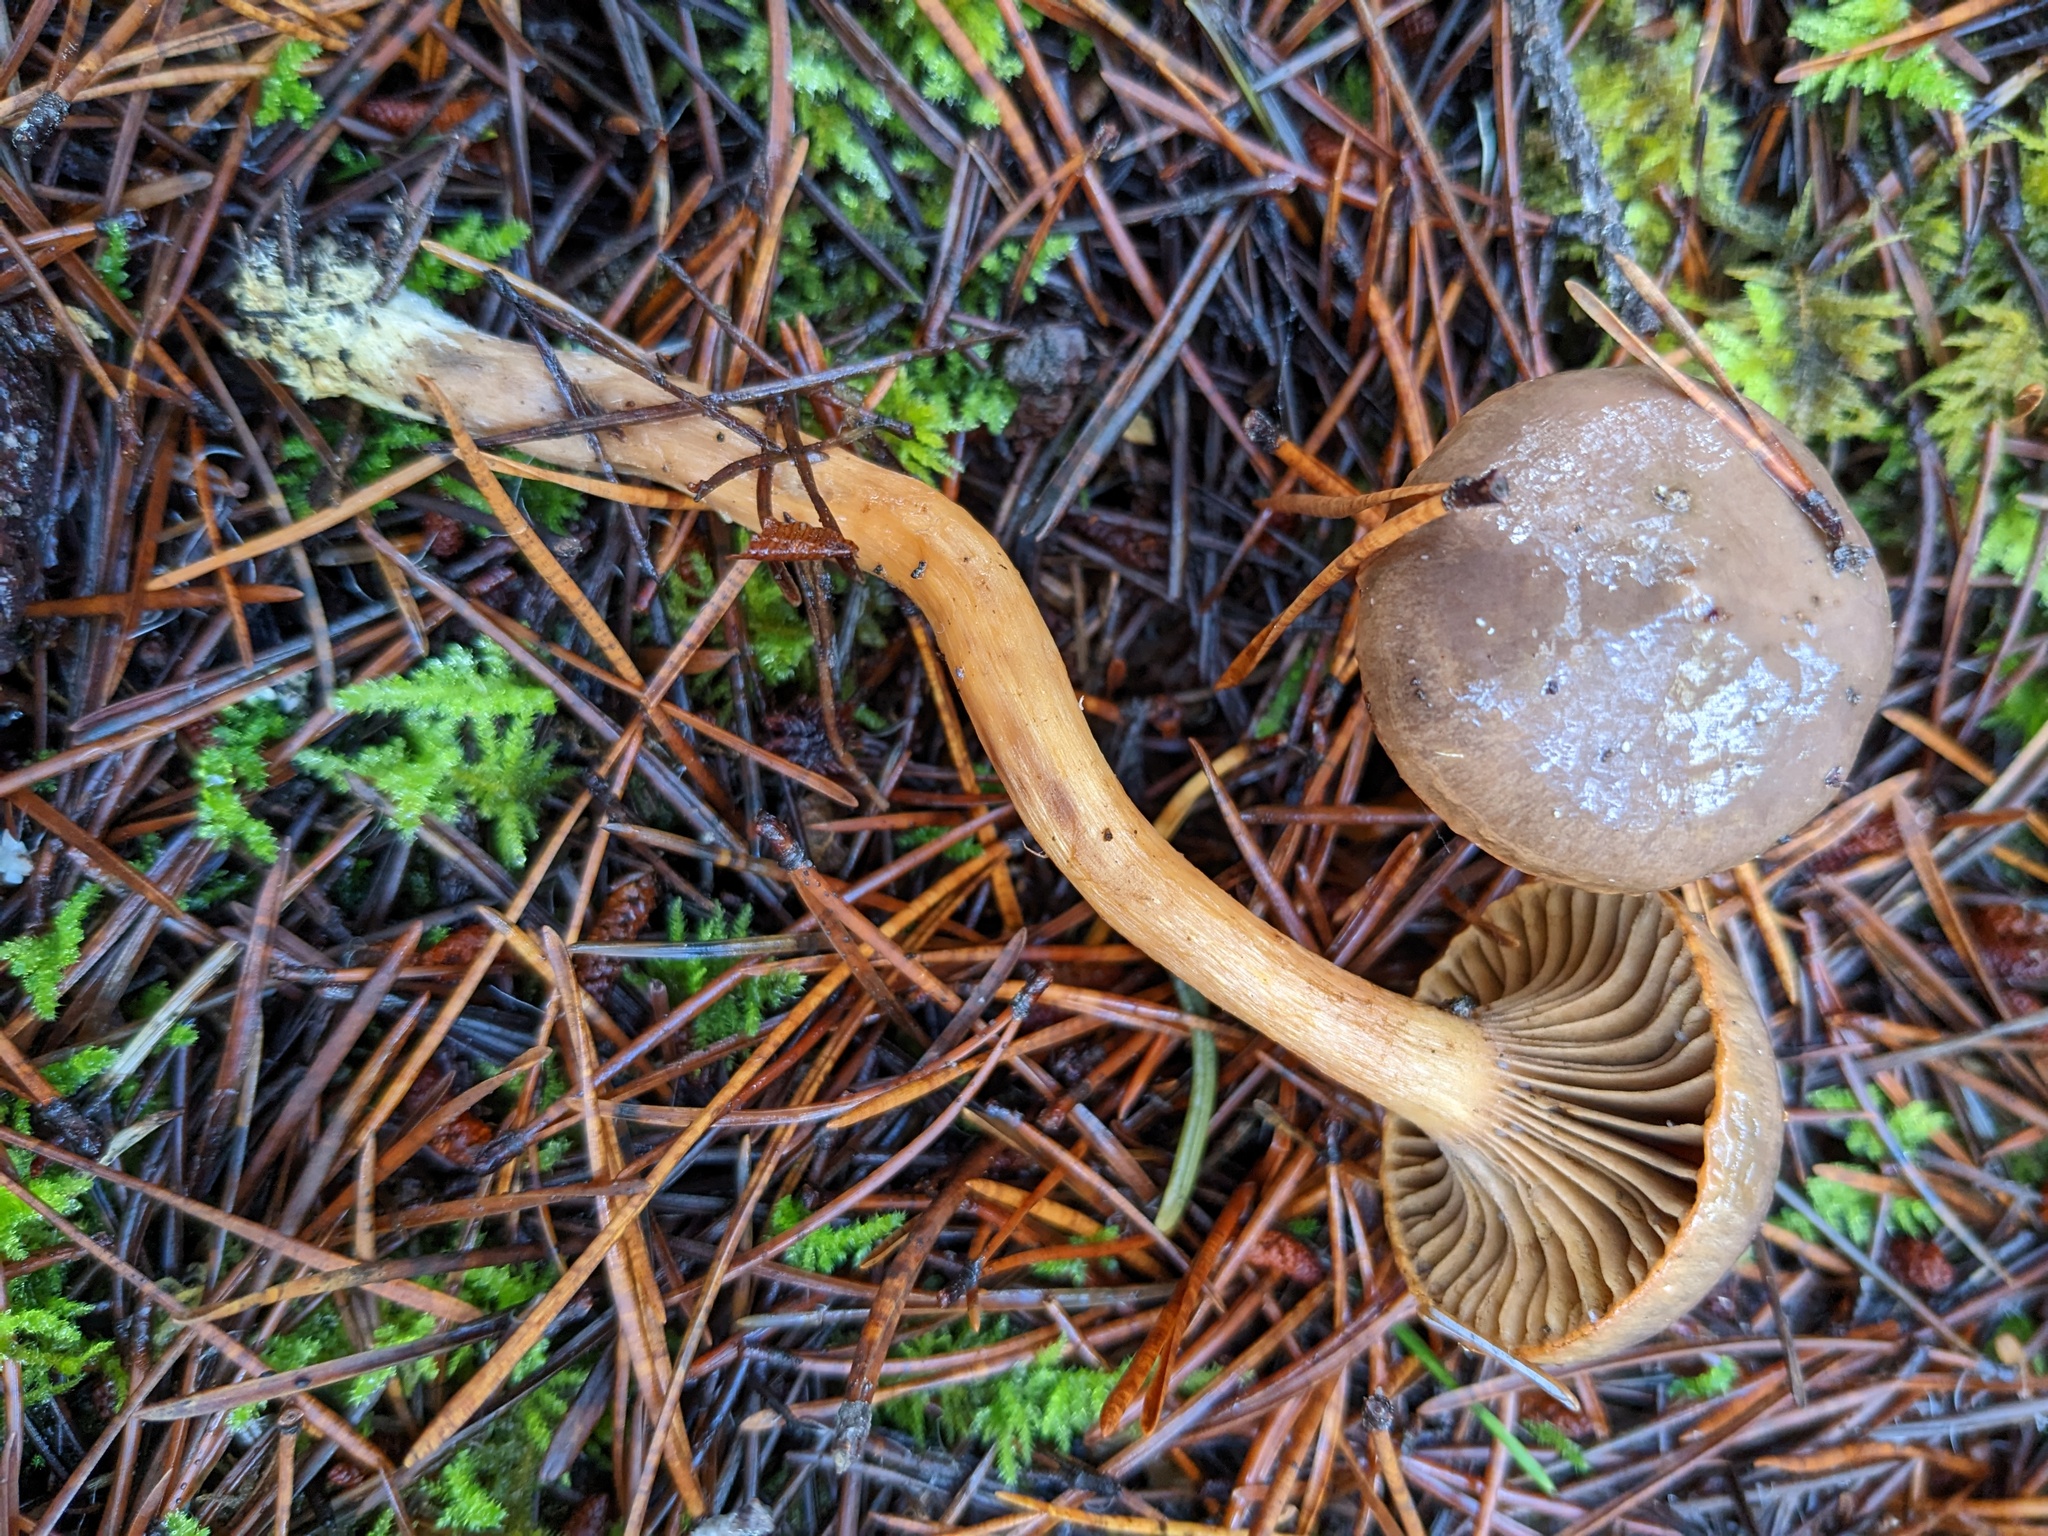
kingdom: Fungi
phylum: Basidiomycota
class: Agaricomycetes
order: Boletales
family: Gomphidiaceae
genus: Chroogomphus
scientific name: Chroogomphus ochraceus
